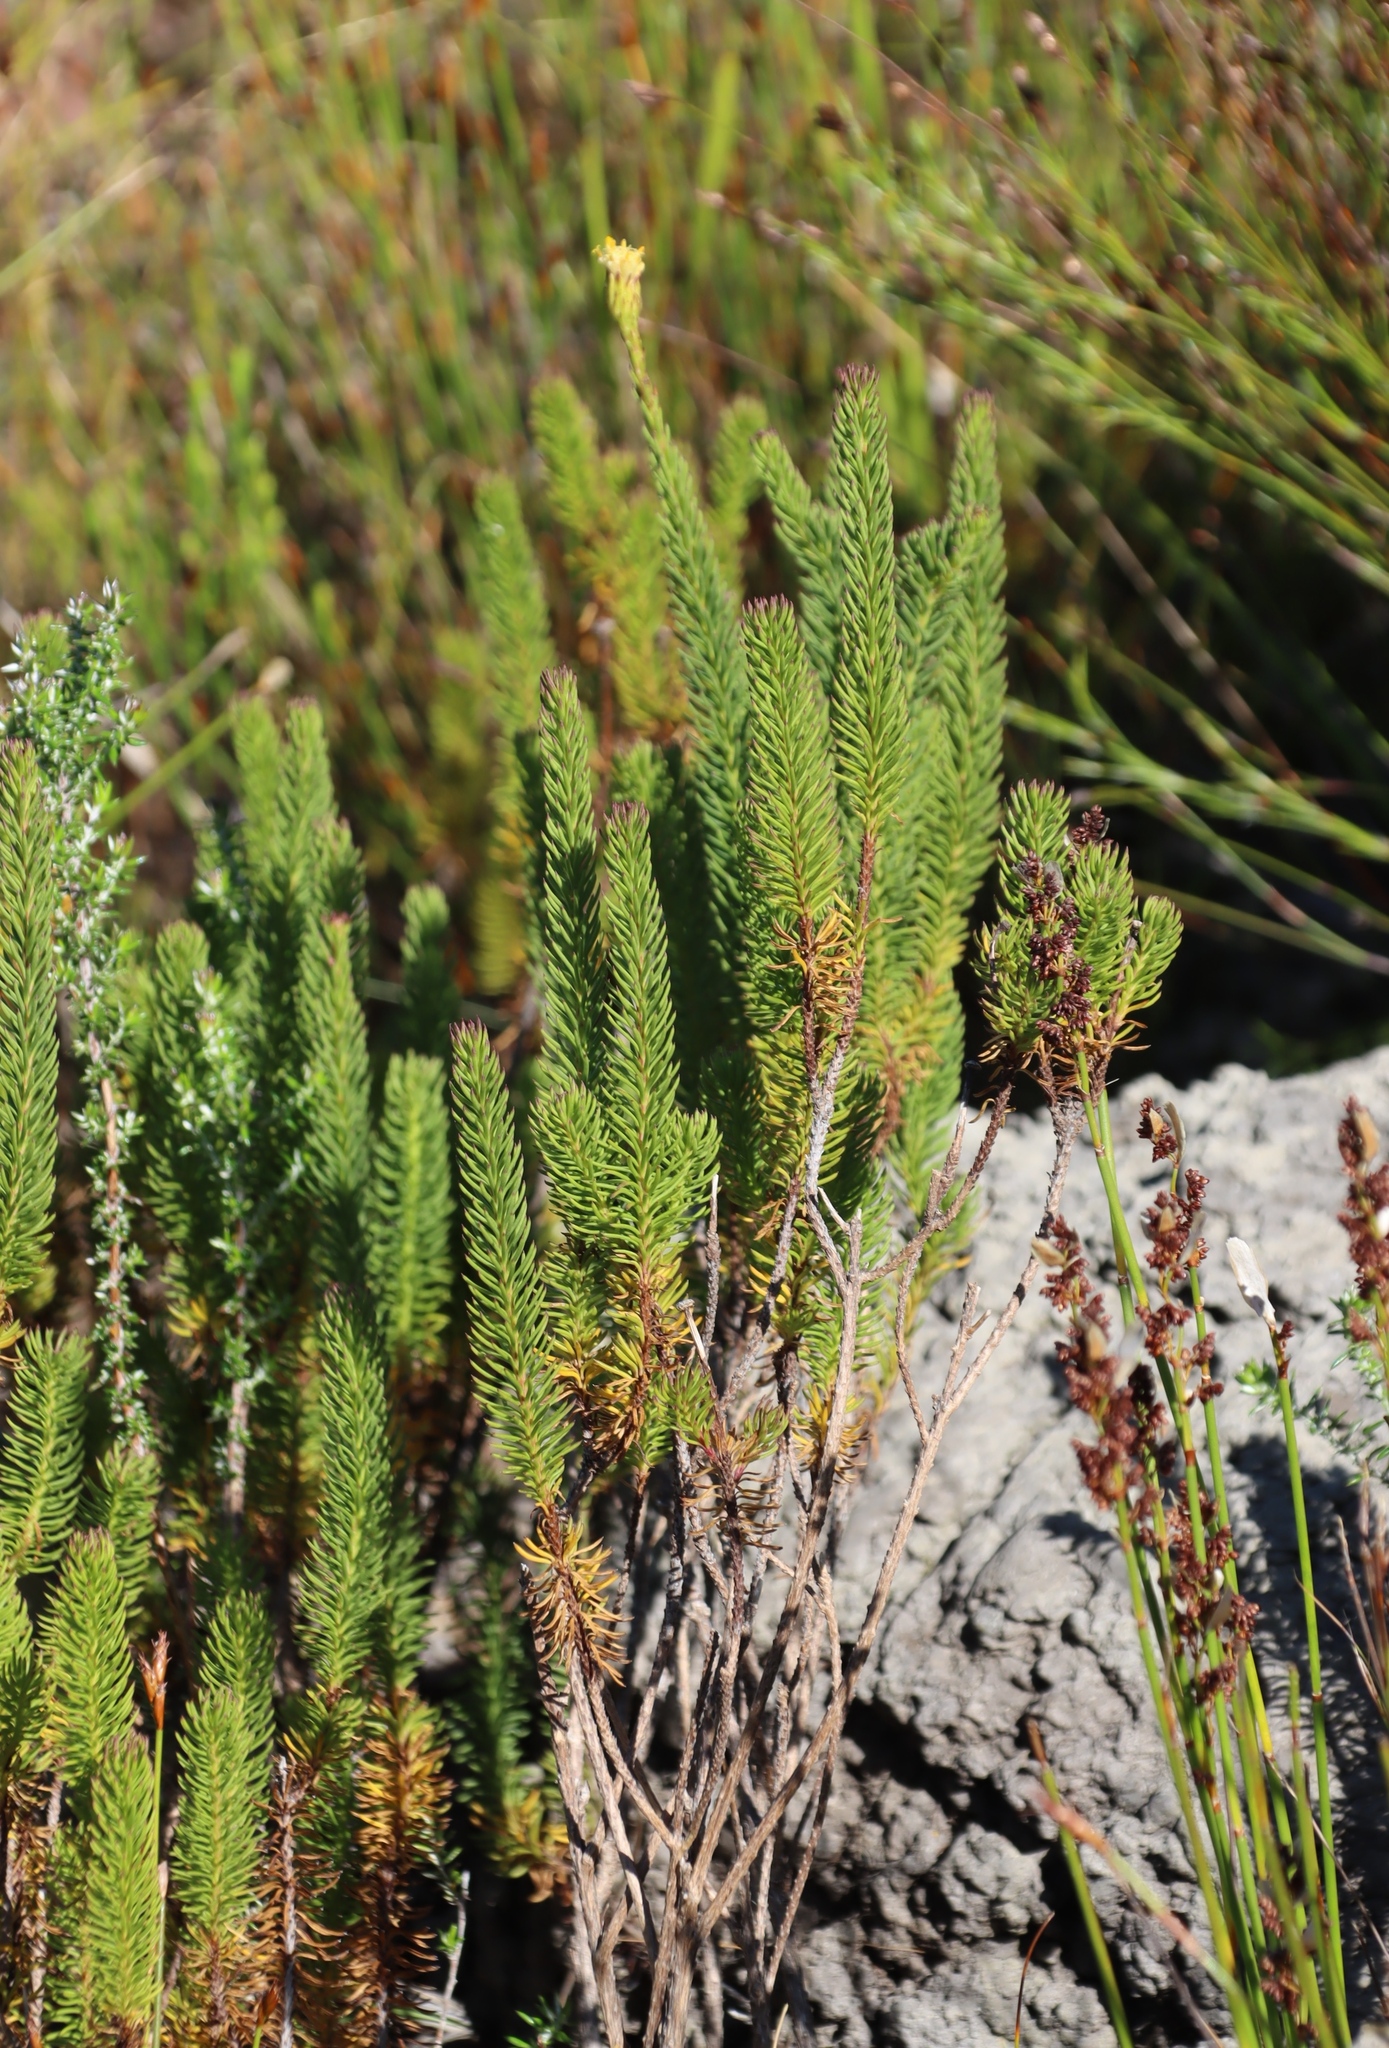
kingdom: Plantae
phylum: Tracheophyta
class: Magnoliopsida
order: Asterales
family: Asteraceae
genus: Senecio
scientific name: Senecio pinifolius
